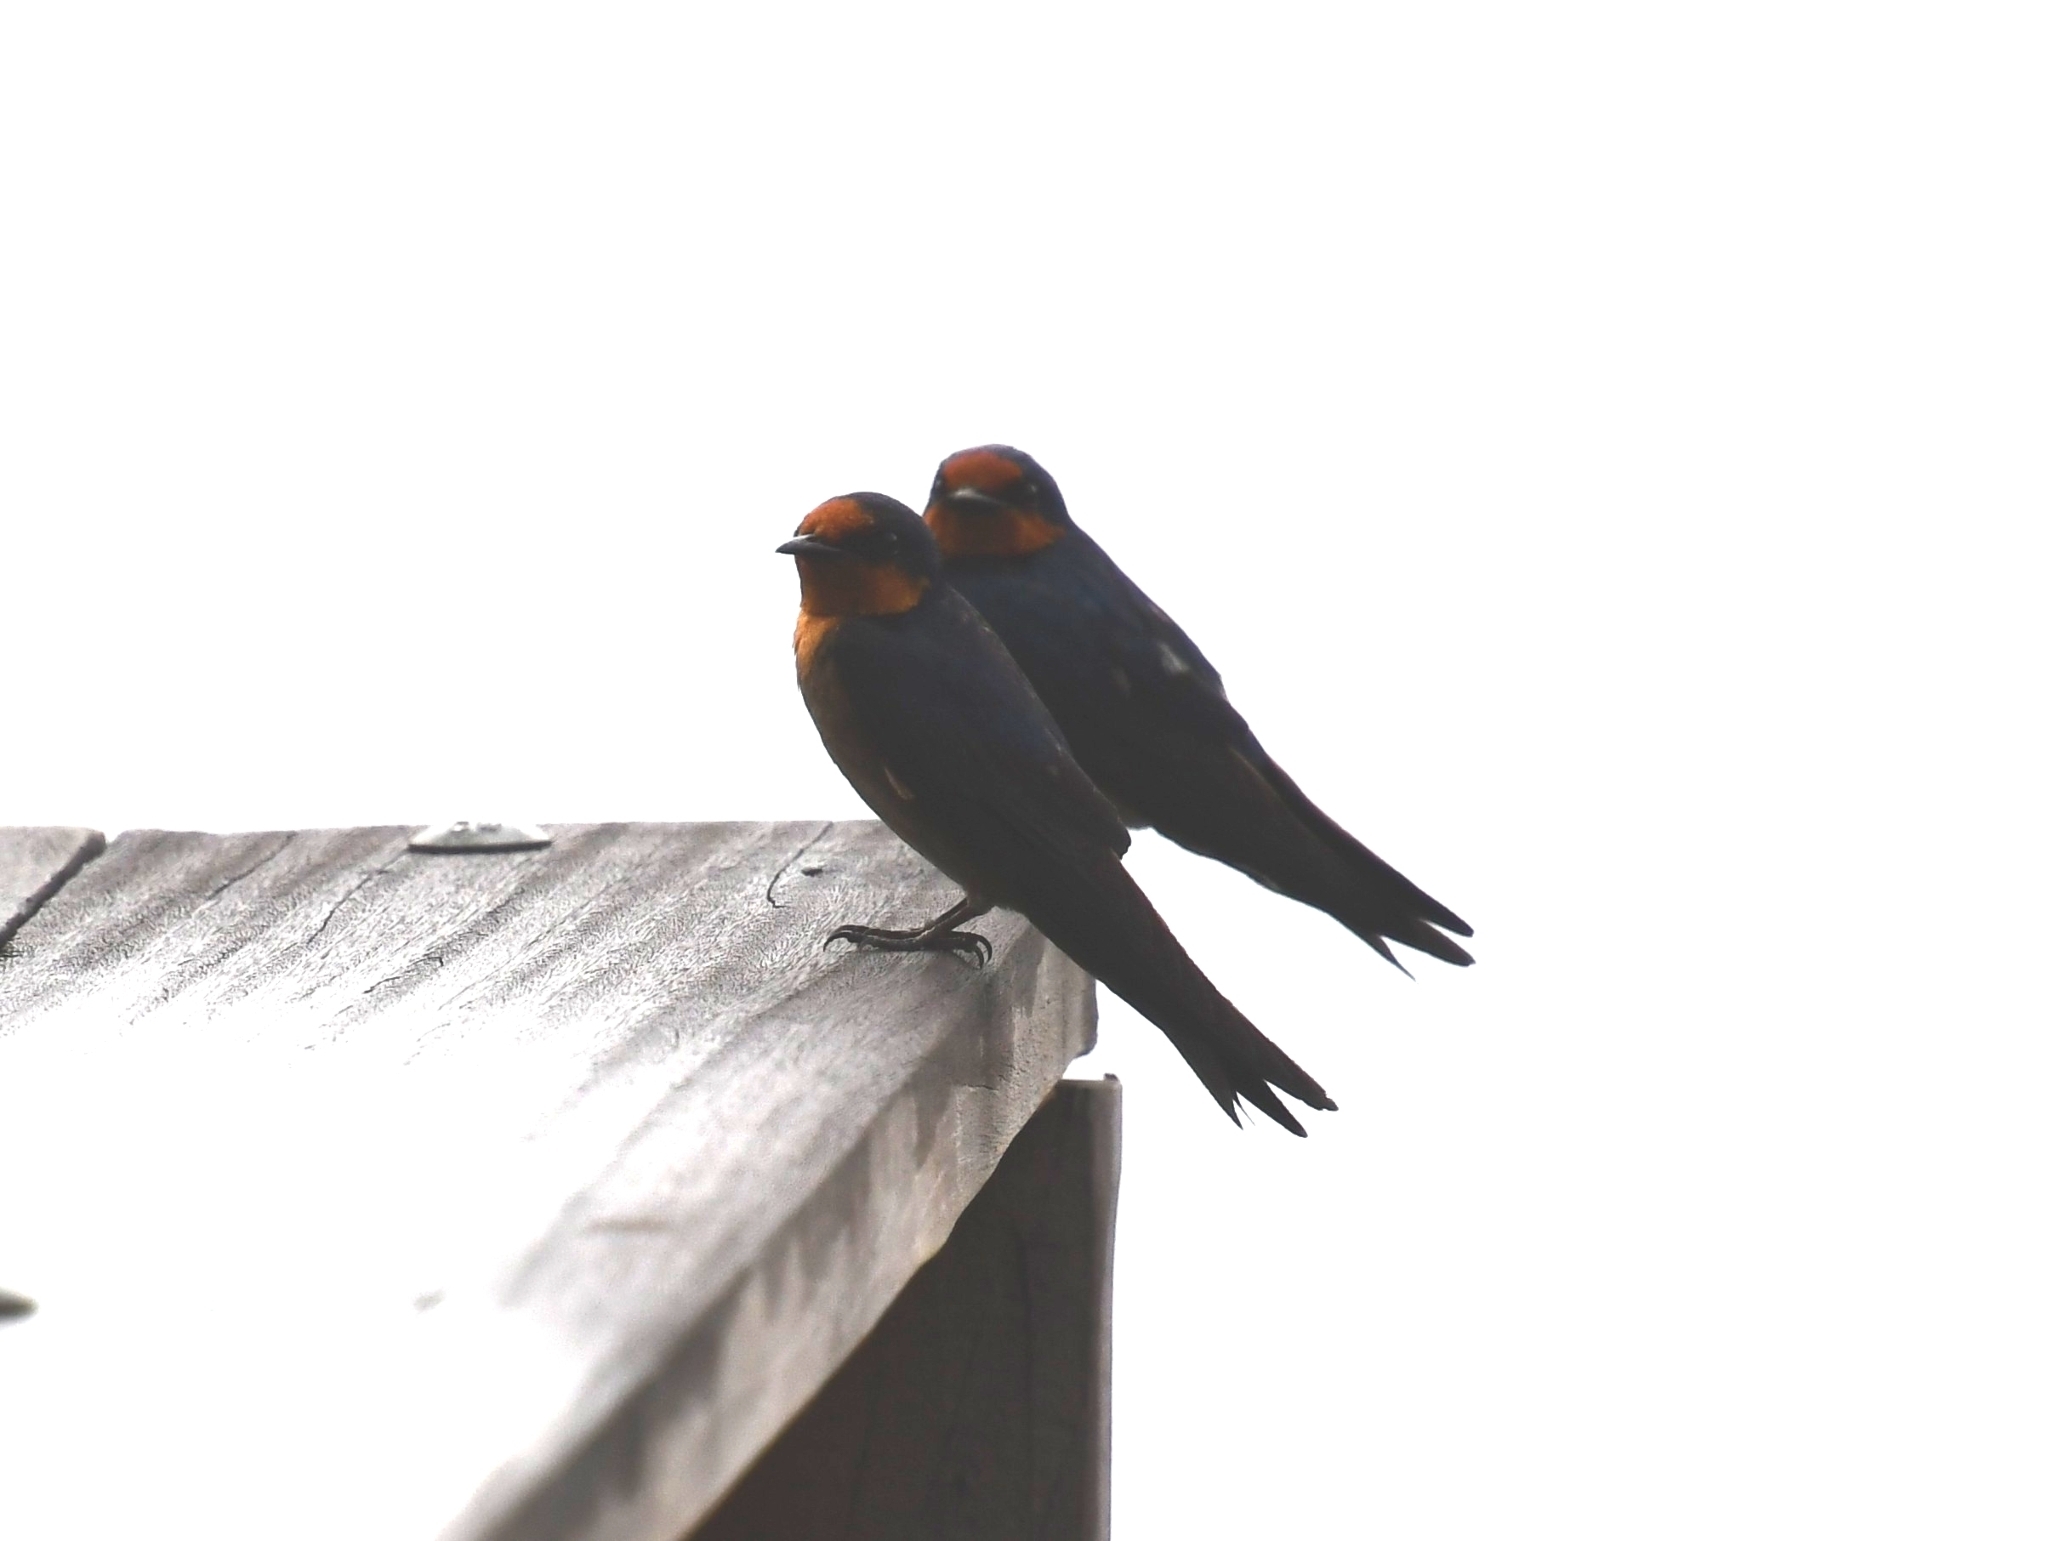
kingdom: Animalia
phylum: Chordata
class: Aves
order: Passeriformes
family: Hirundinidae
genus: Hirundo
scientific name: Hirundo tahitica
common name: Pacific swallow
